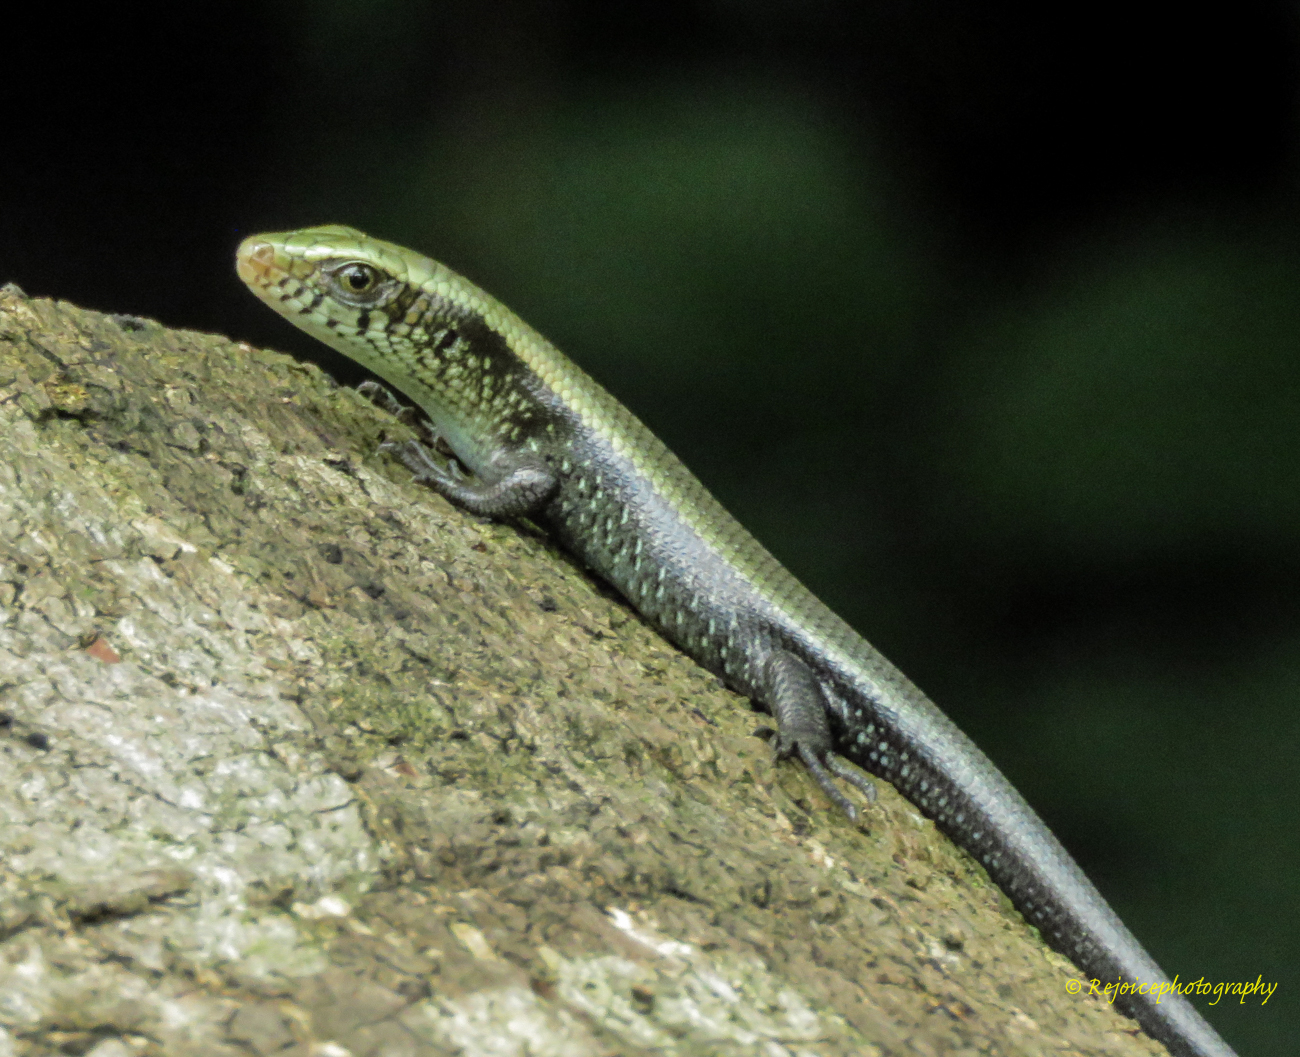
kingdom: Animalia
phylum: Chordata
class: Squamata
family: Scincidae
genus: Eutropis
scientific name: Eutropis multifasciata
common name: Common mabuya
